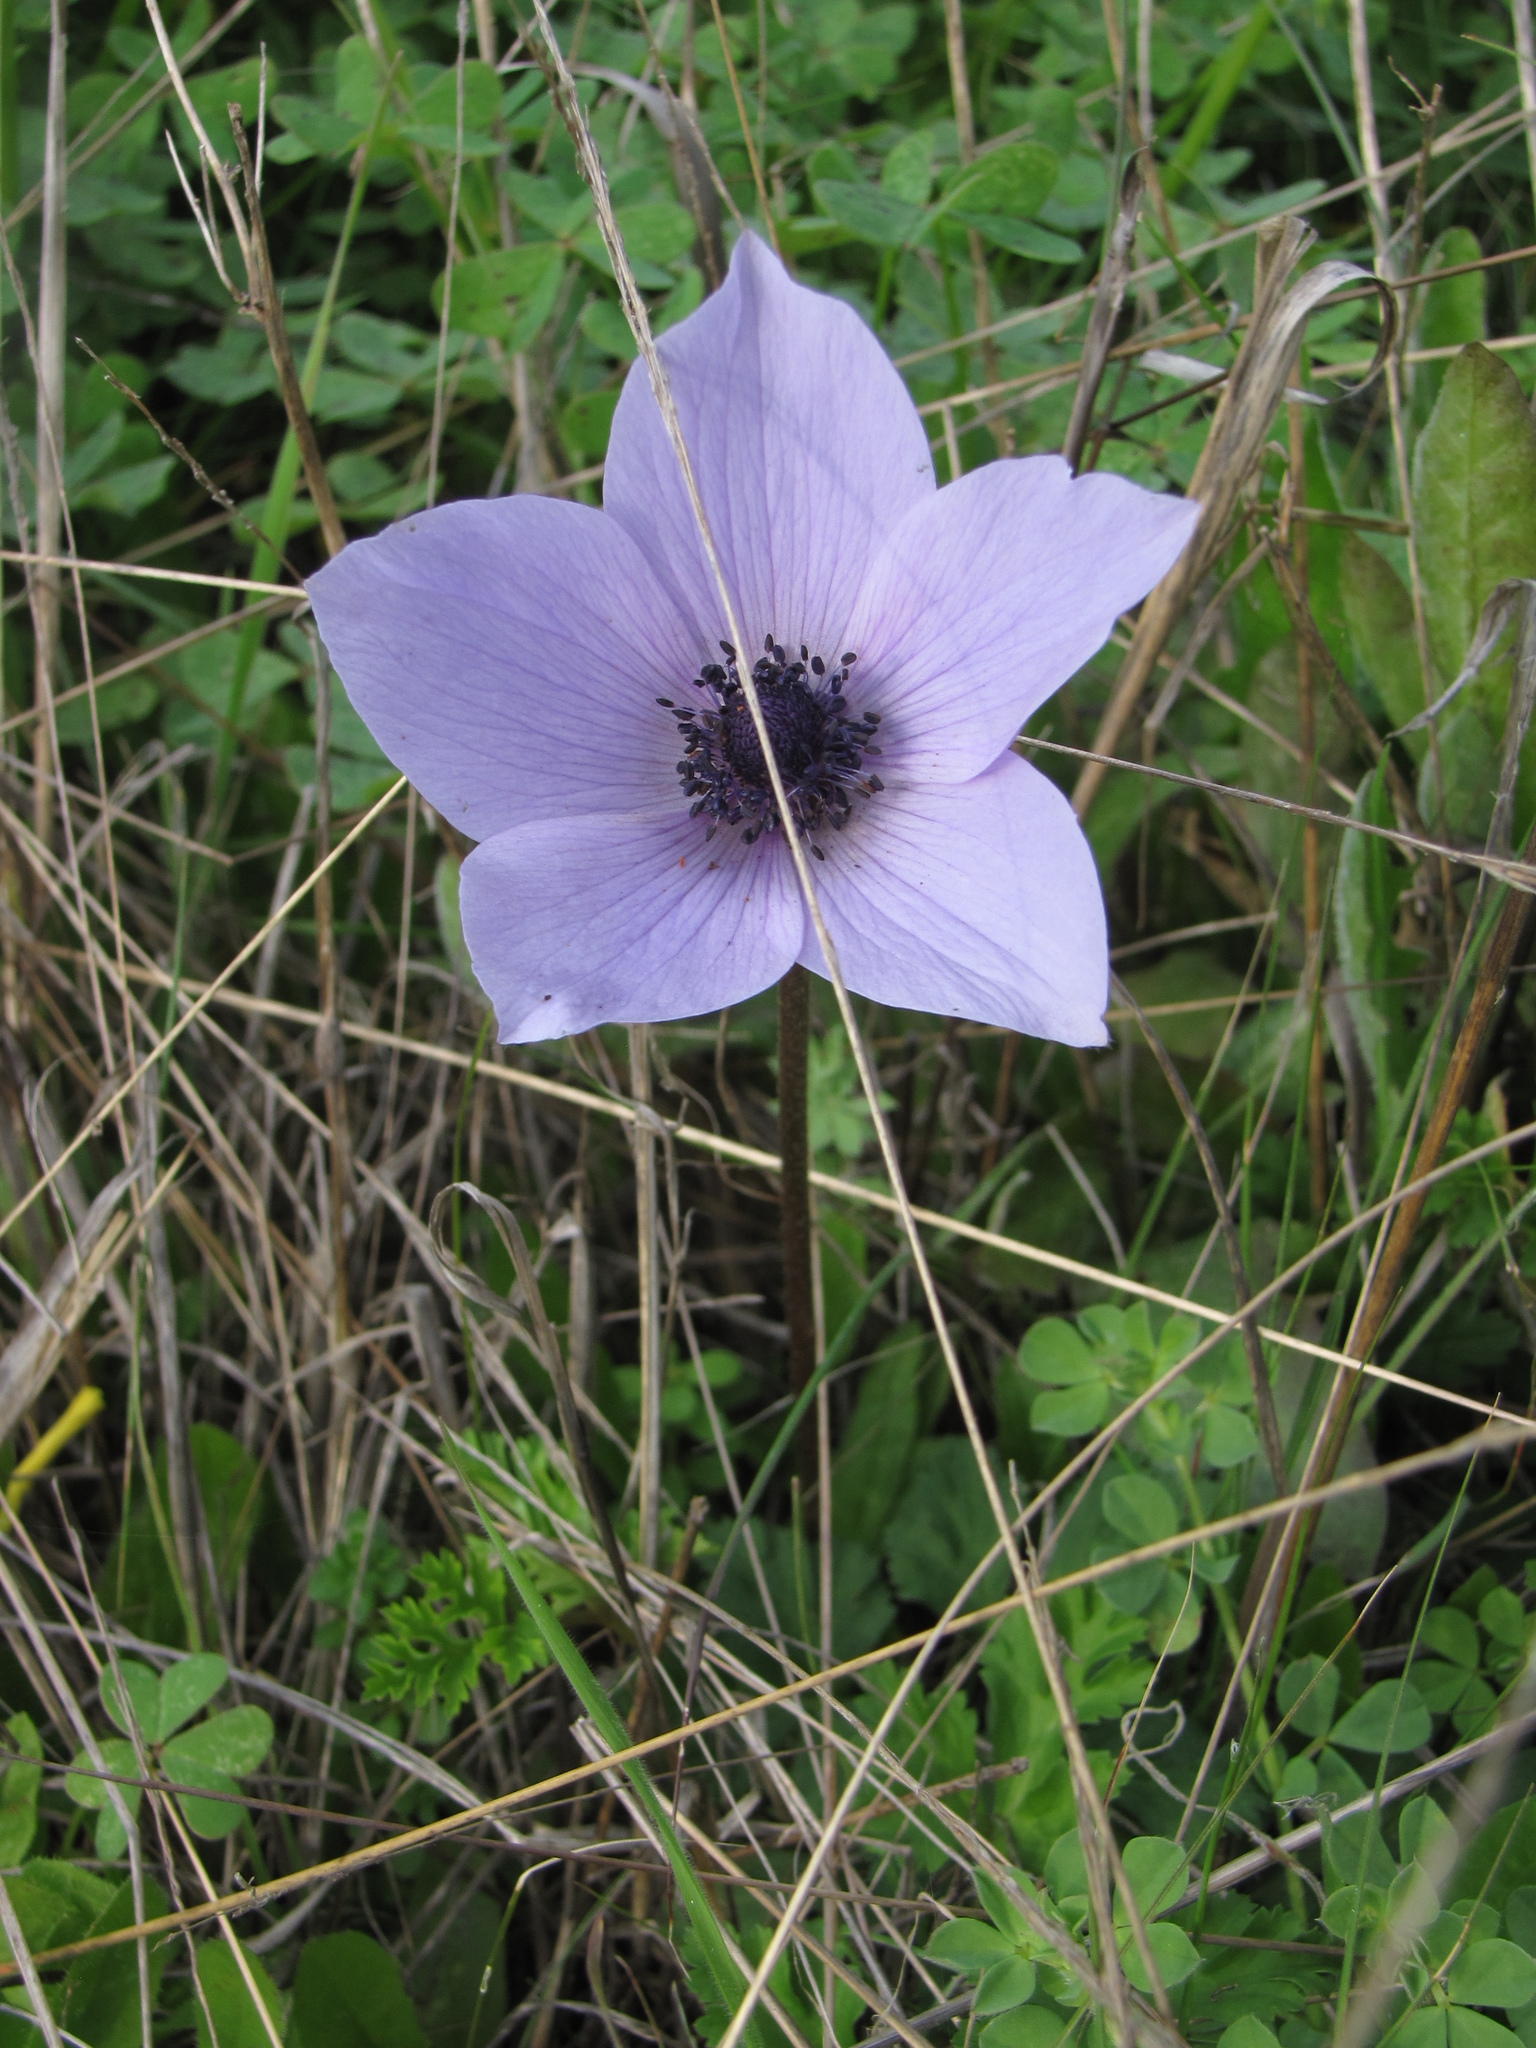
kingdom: Plantae
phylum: Tracheophyta
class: Magnoliopsida
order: Ranunculales
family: Ranunculaceae
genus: Anemone
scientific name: Anemone coronaria
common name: Poppy anemone
